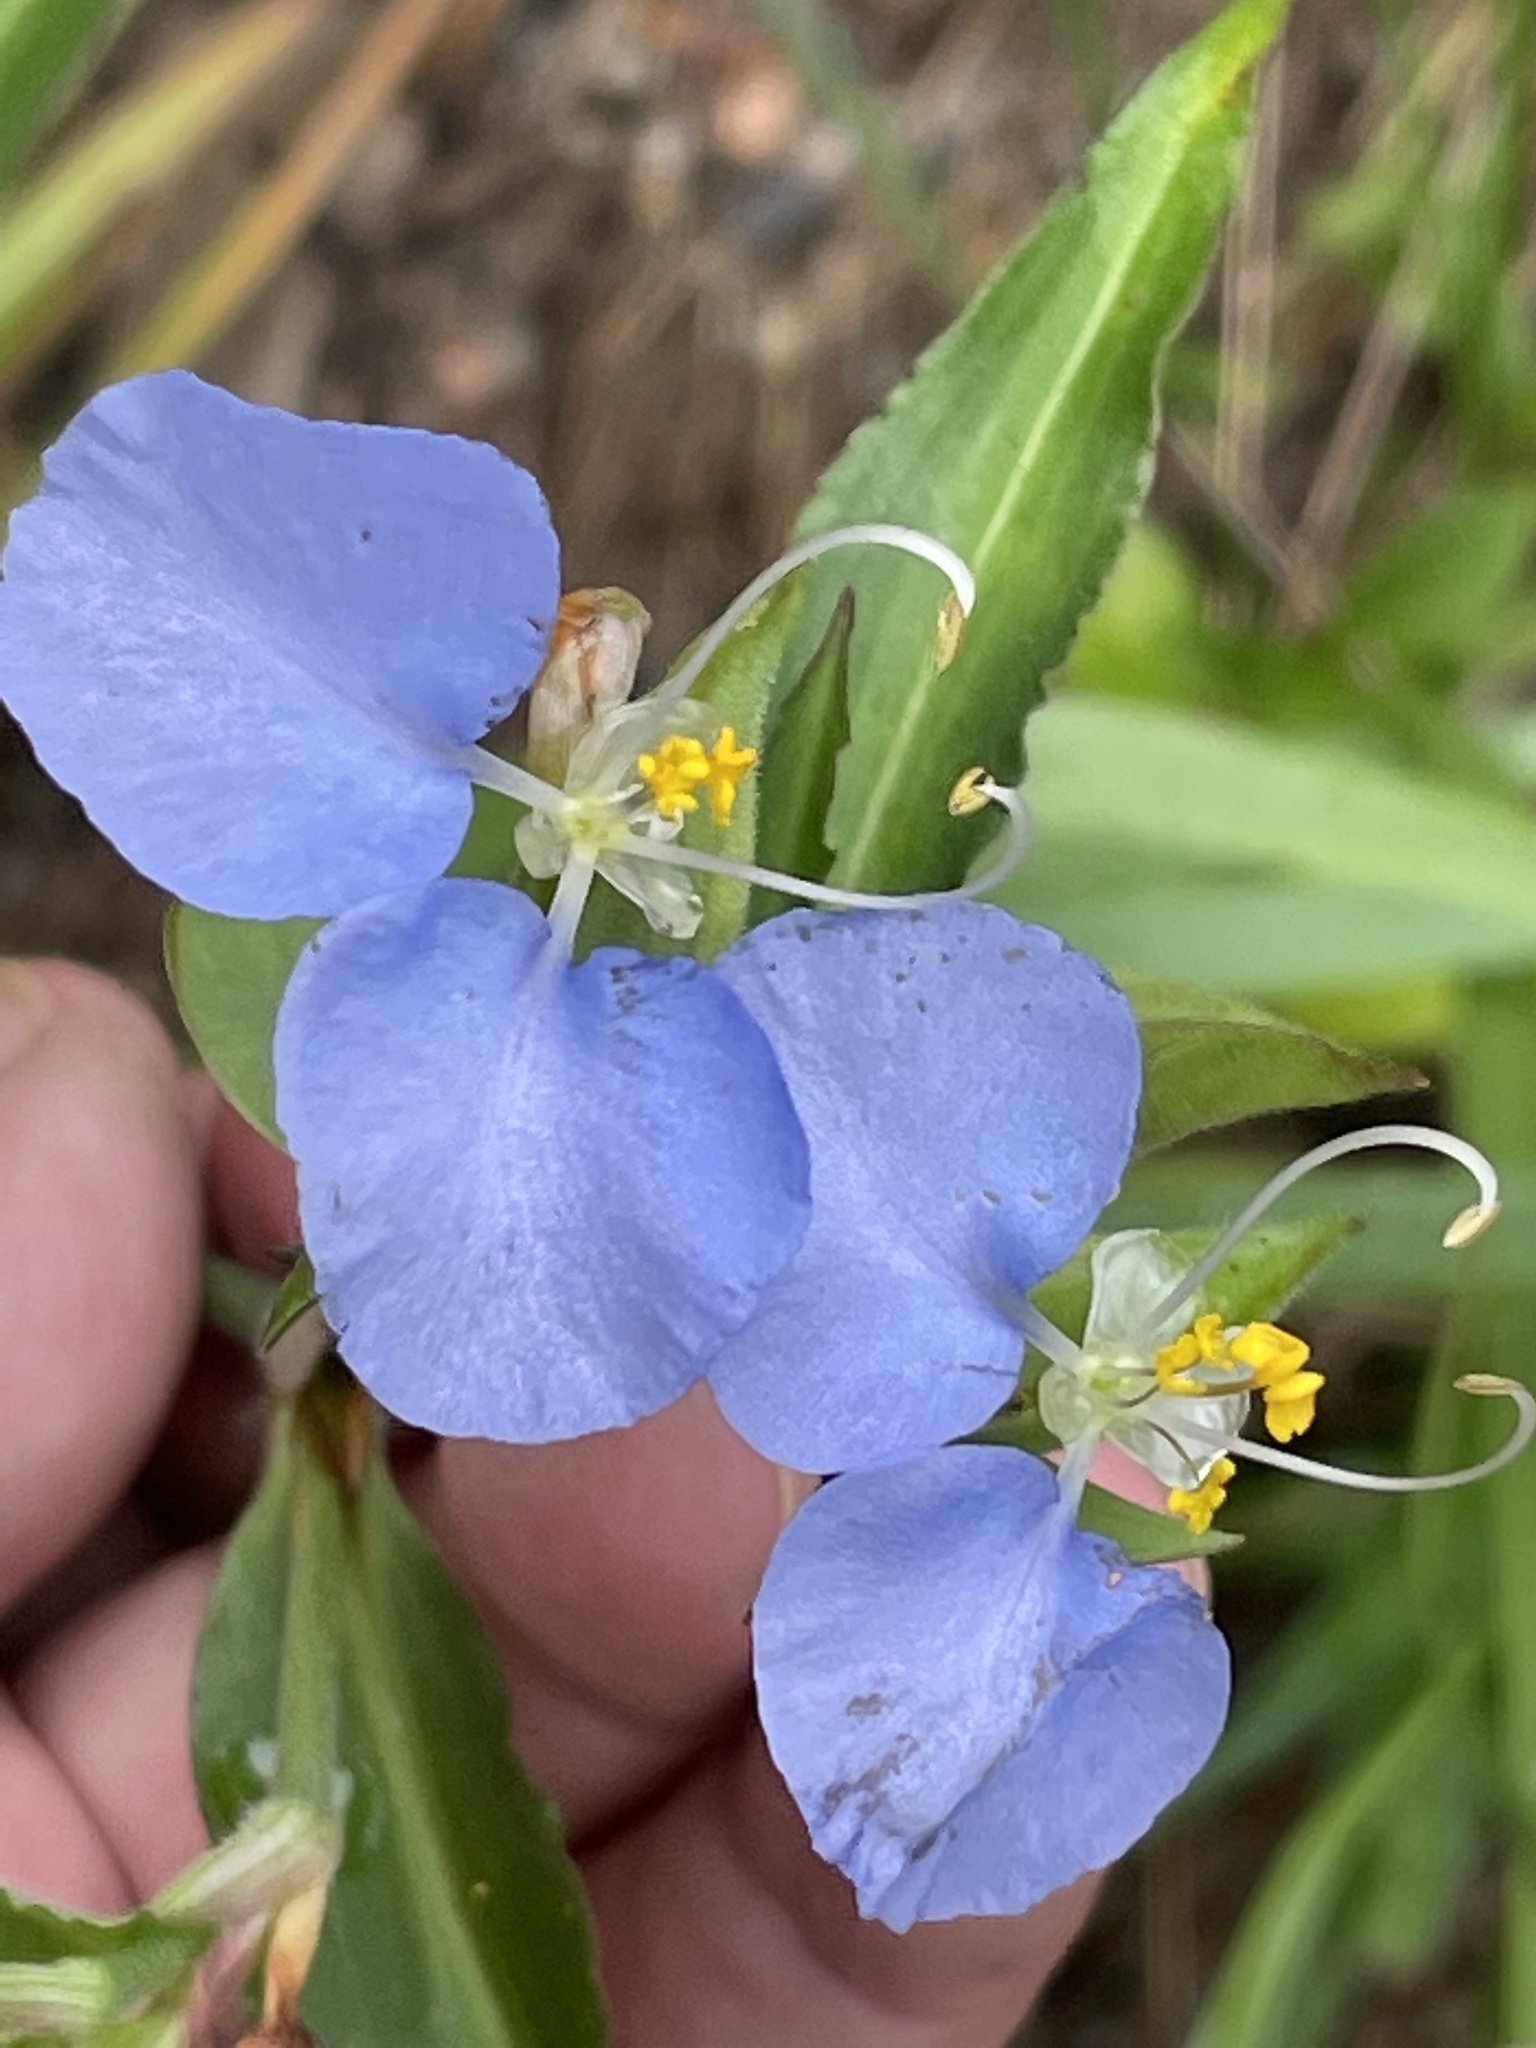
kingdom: Plantae
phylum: Tracheophyta
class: Liliopsida
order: Commelinales
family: Commelinaceae
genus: Commelina
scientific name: Commelina erecta
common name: Blousel blommetjie
